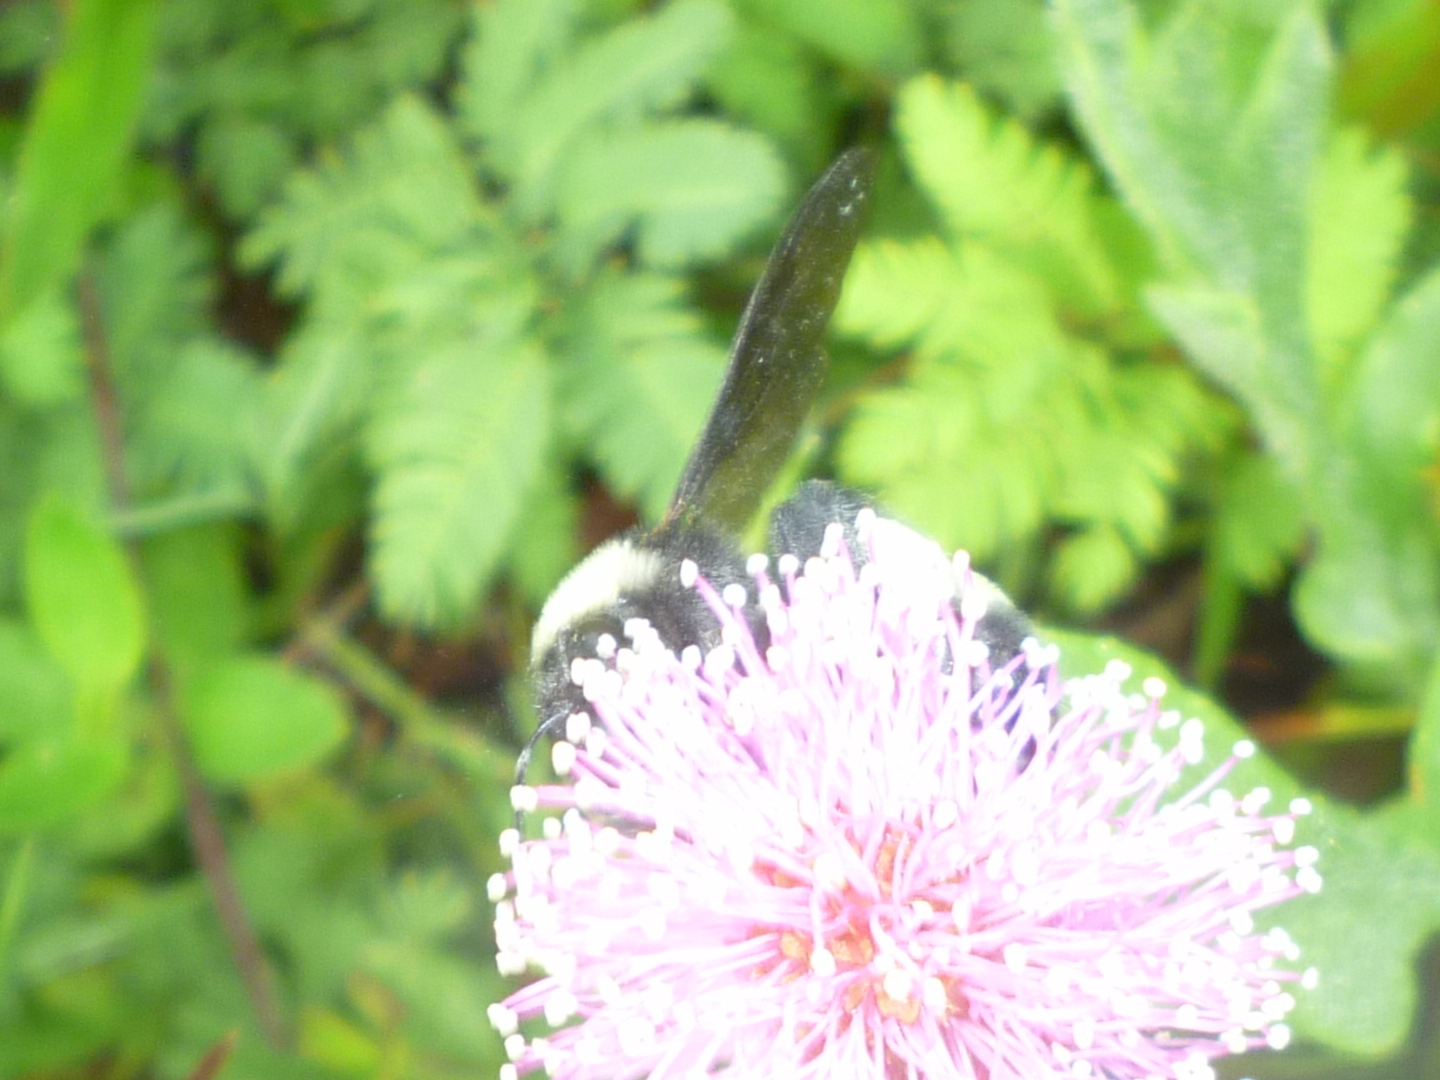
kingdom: Animalia
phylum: Arthropoda
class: Insecta
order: Hymenoptera
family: Apidae
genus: Bombus
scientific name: Bombus pensylvanicus
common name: Bumble bee
